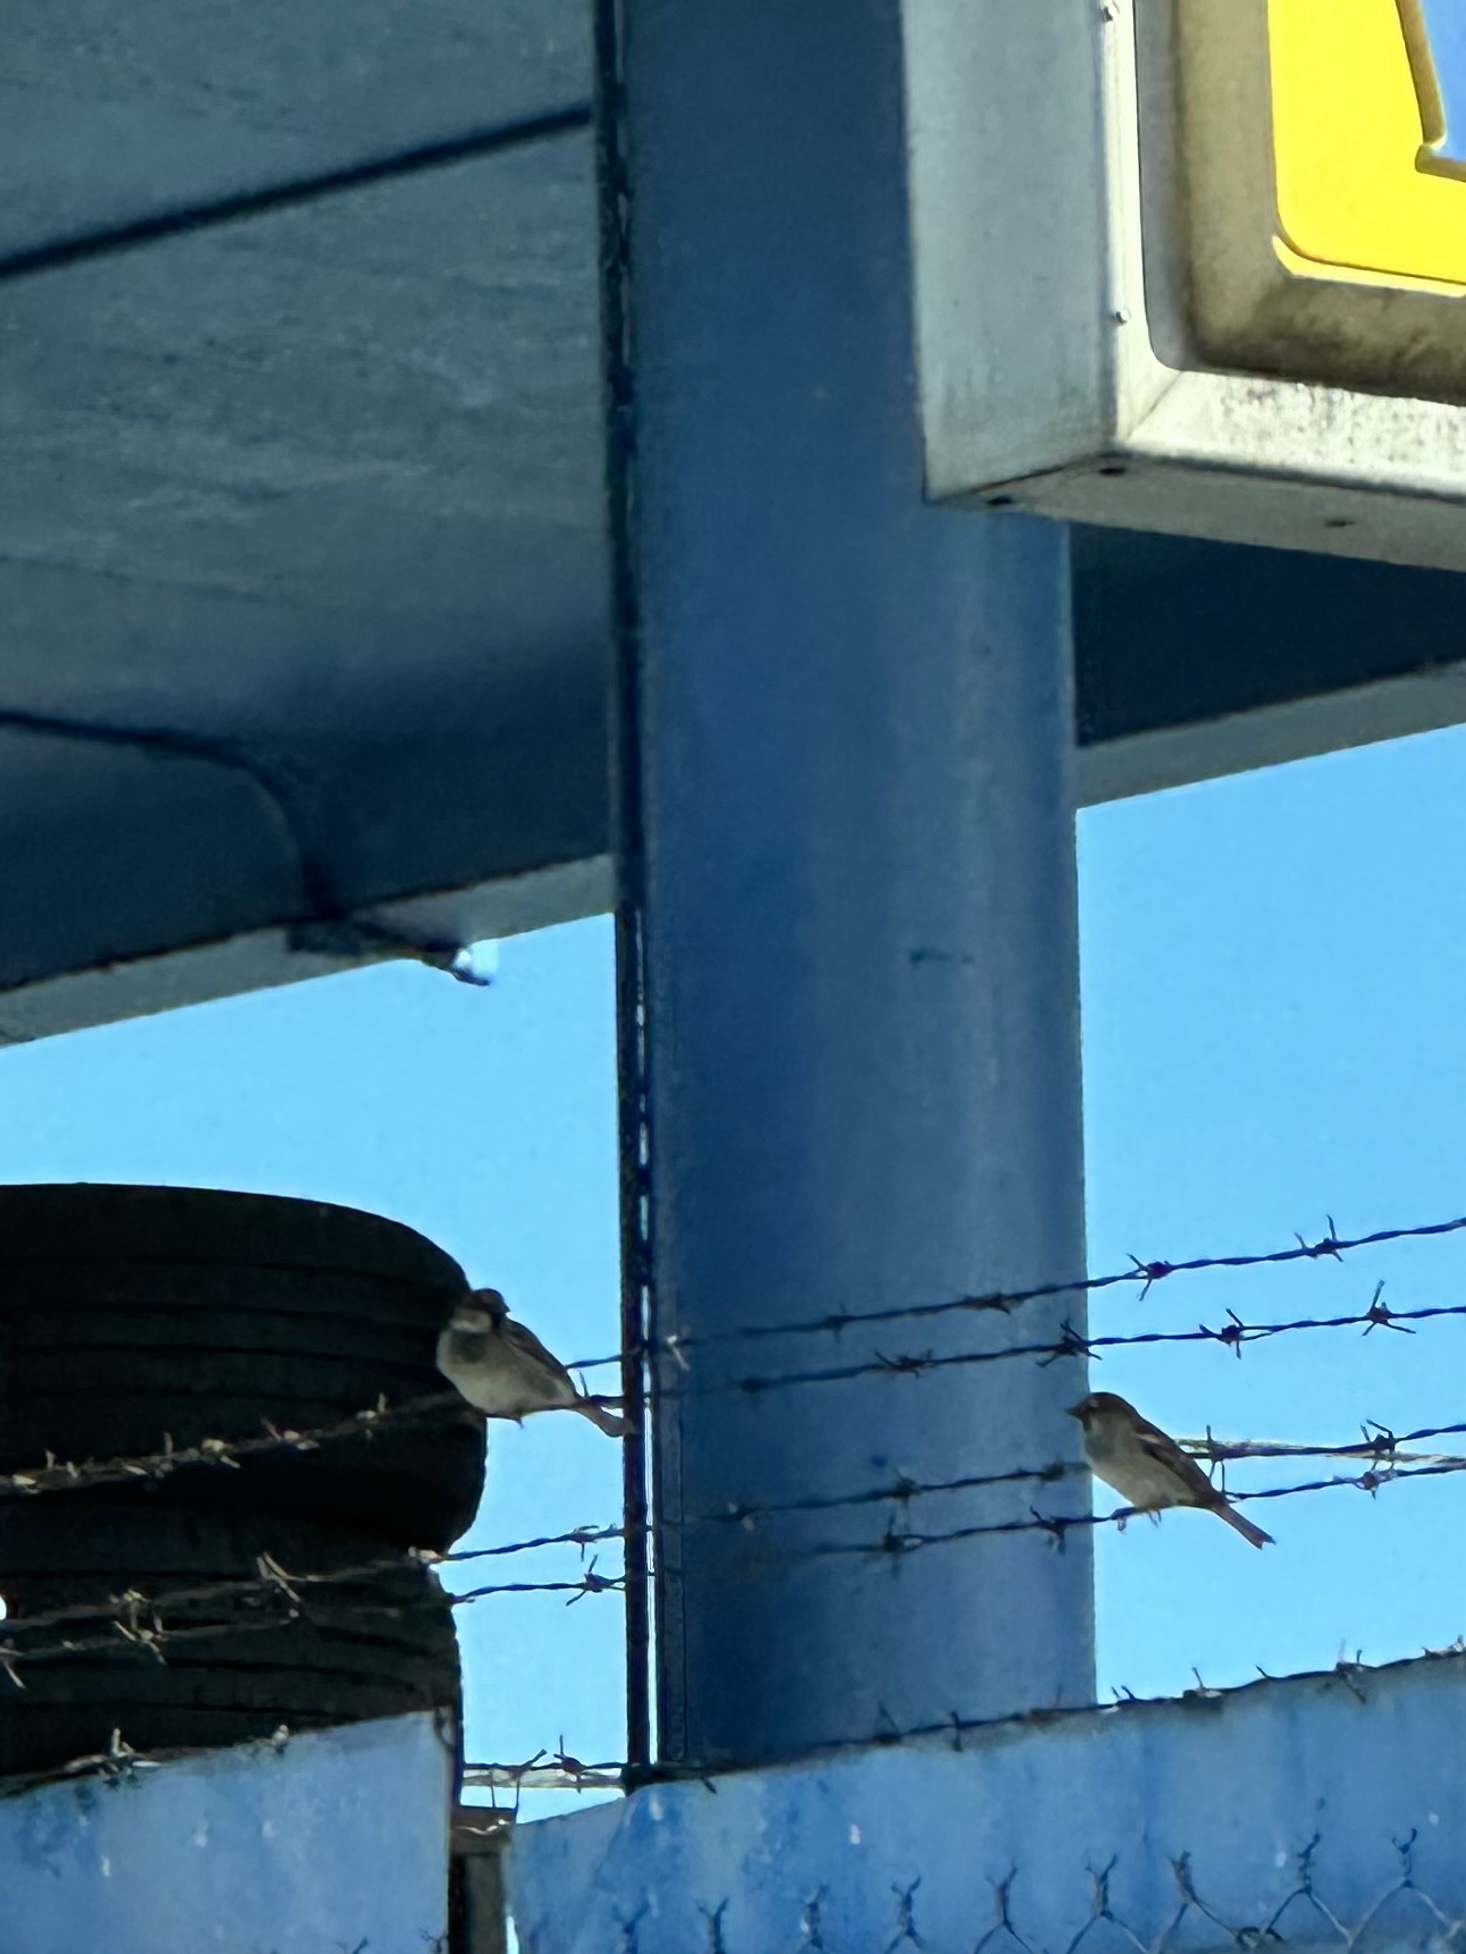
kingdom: Animalia
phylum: Chordata
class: Aves
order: Passeriformes
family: Passeridae
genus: Passer
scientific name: Passer domesticus
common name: House sparrow
